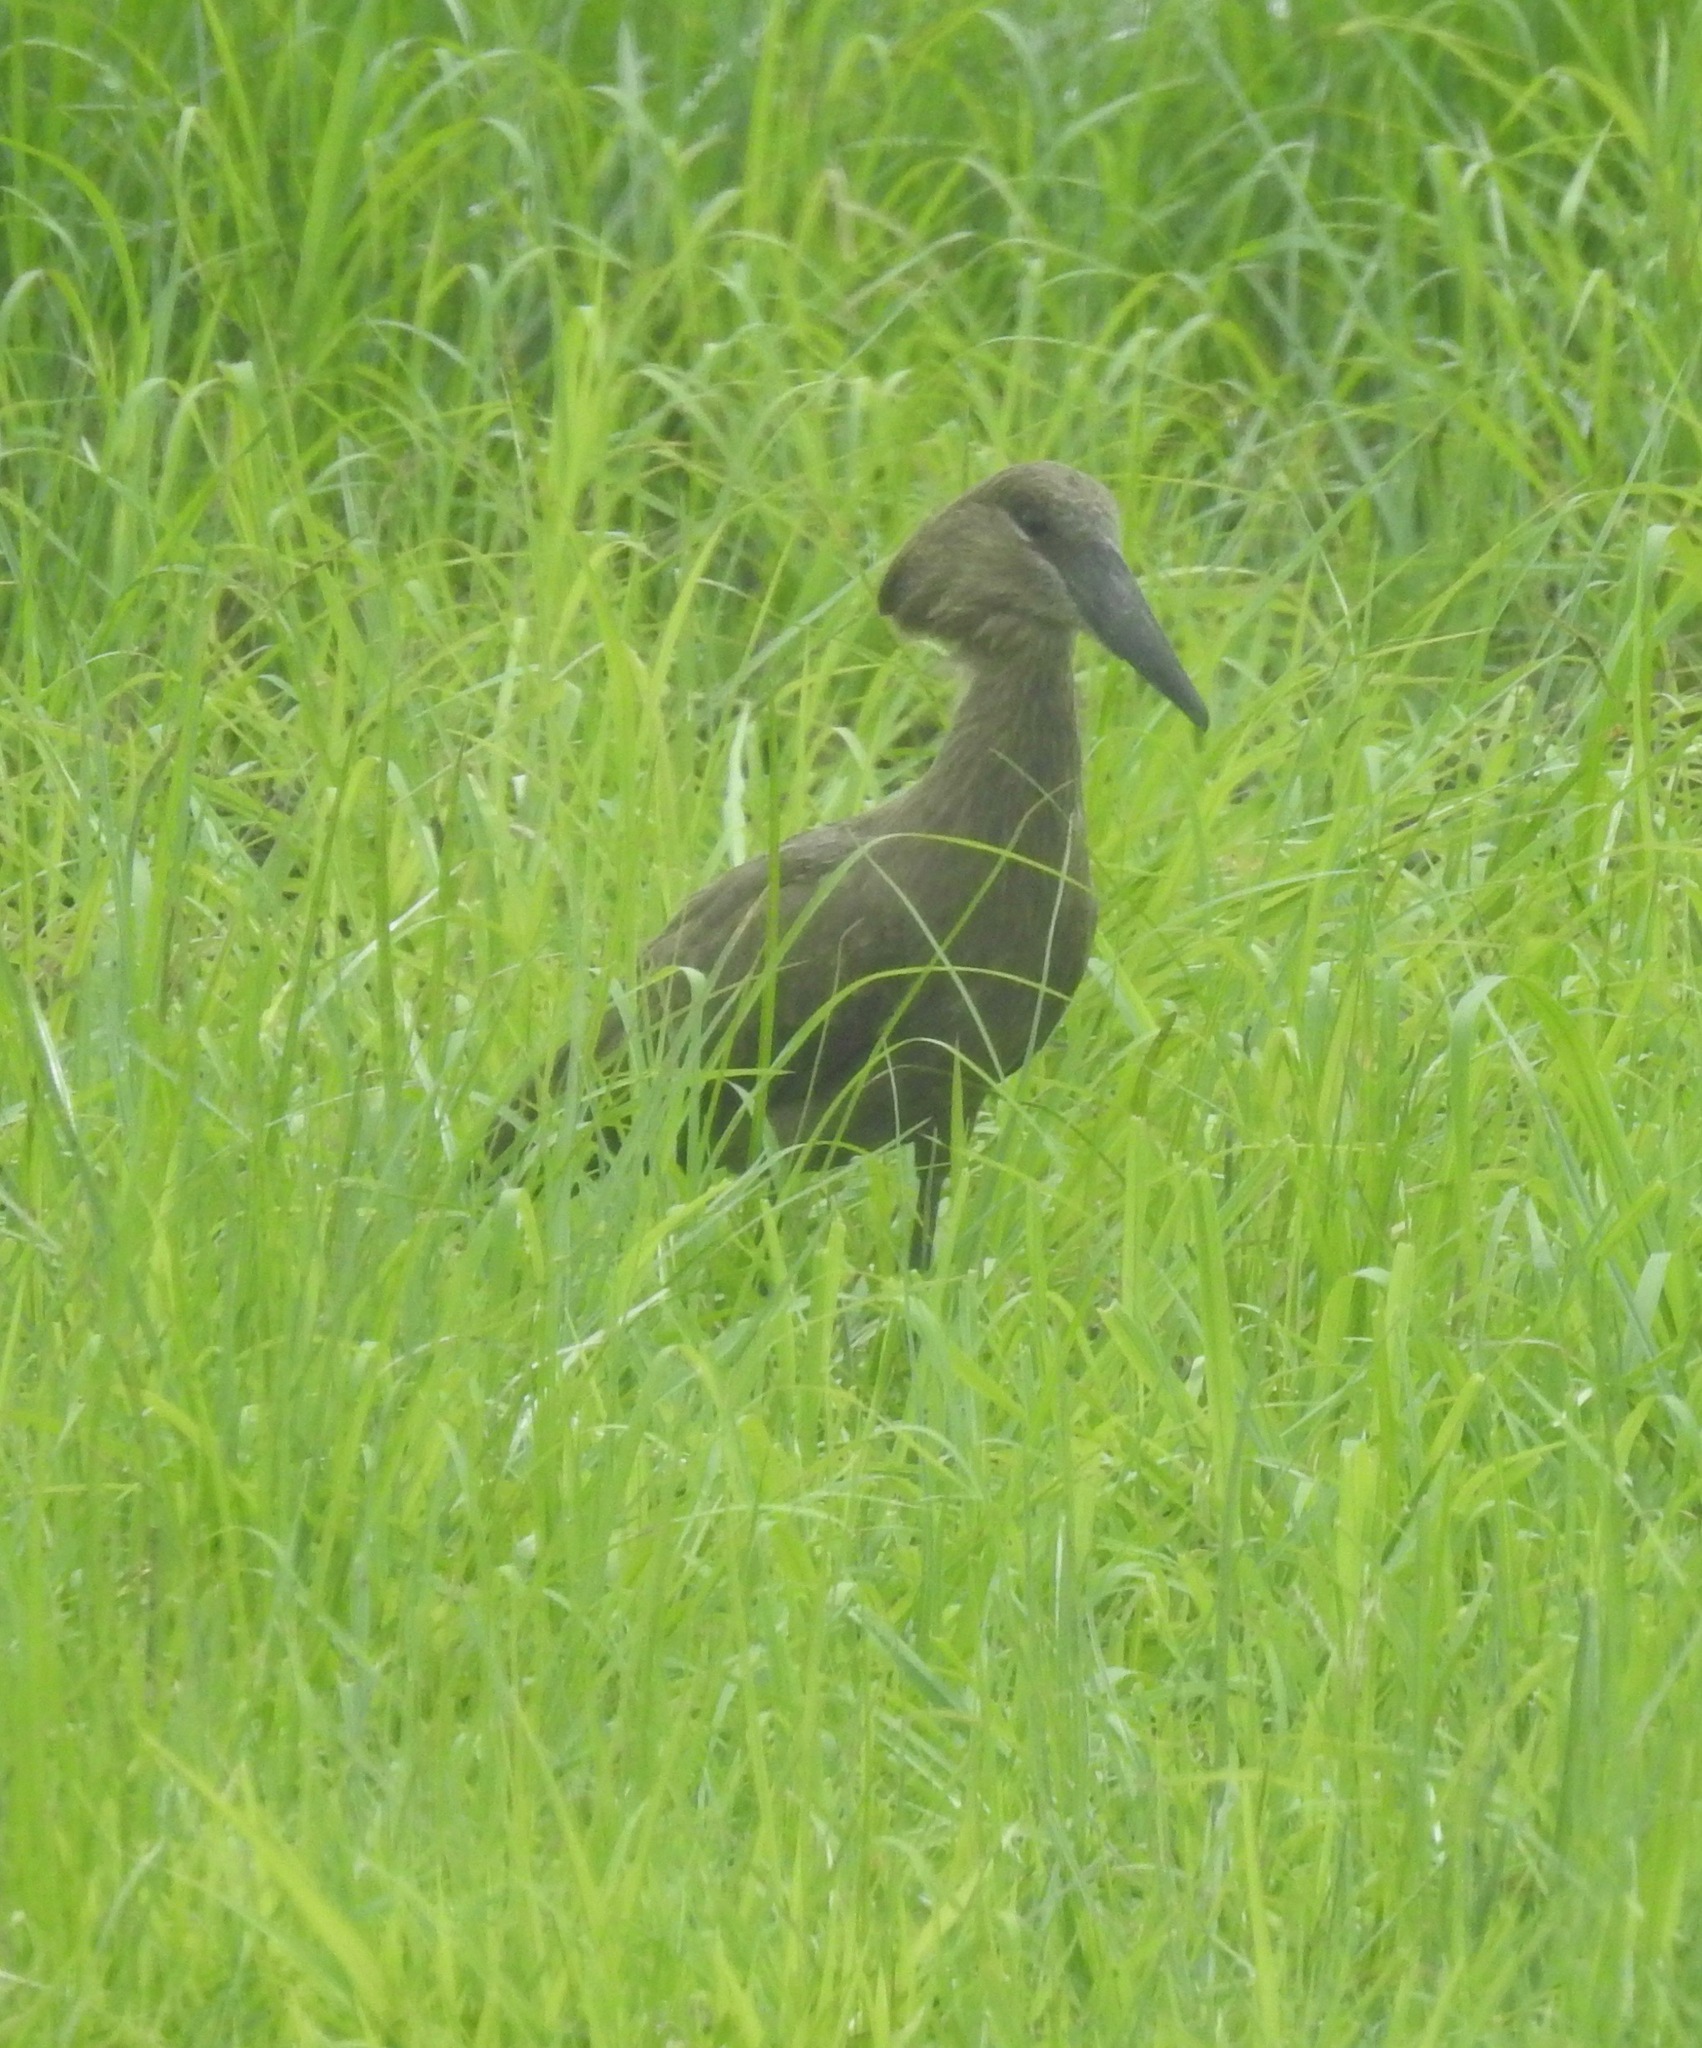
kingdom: Animalia
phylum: Chordata
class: Aves
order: Pelecaniformes
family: Scopidae
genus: Scopus
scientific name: Scopus umbretta
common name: Hamerkop
